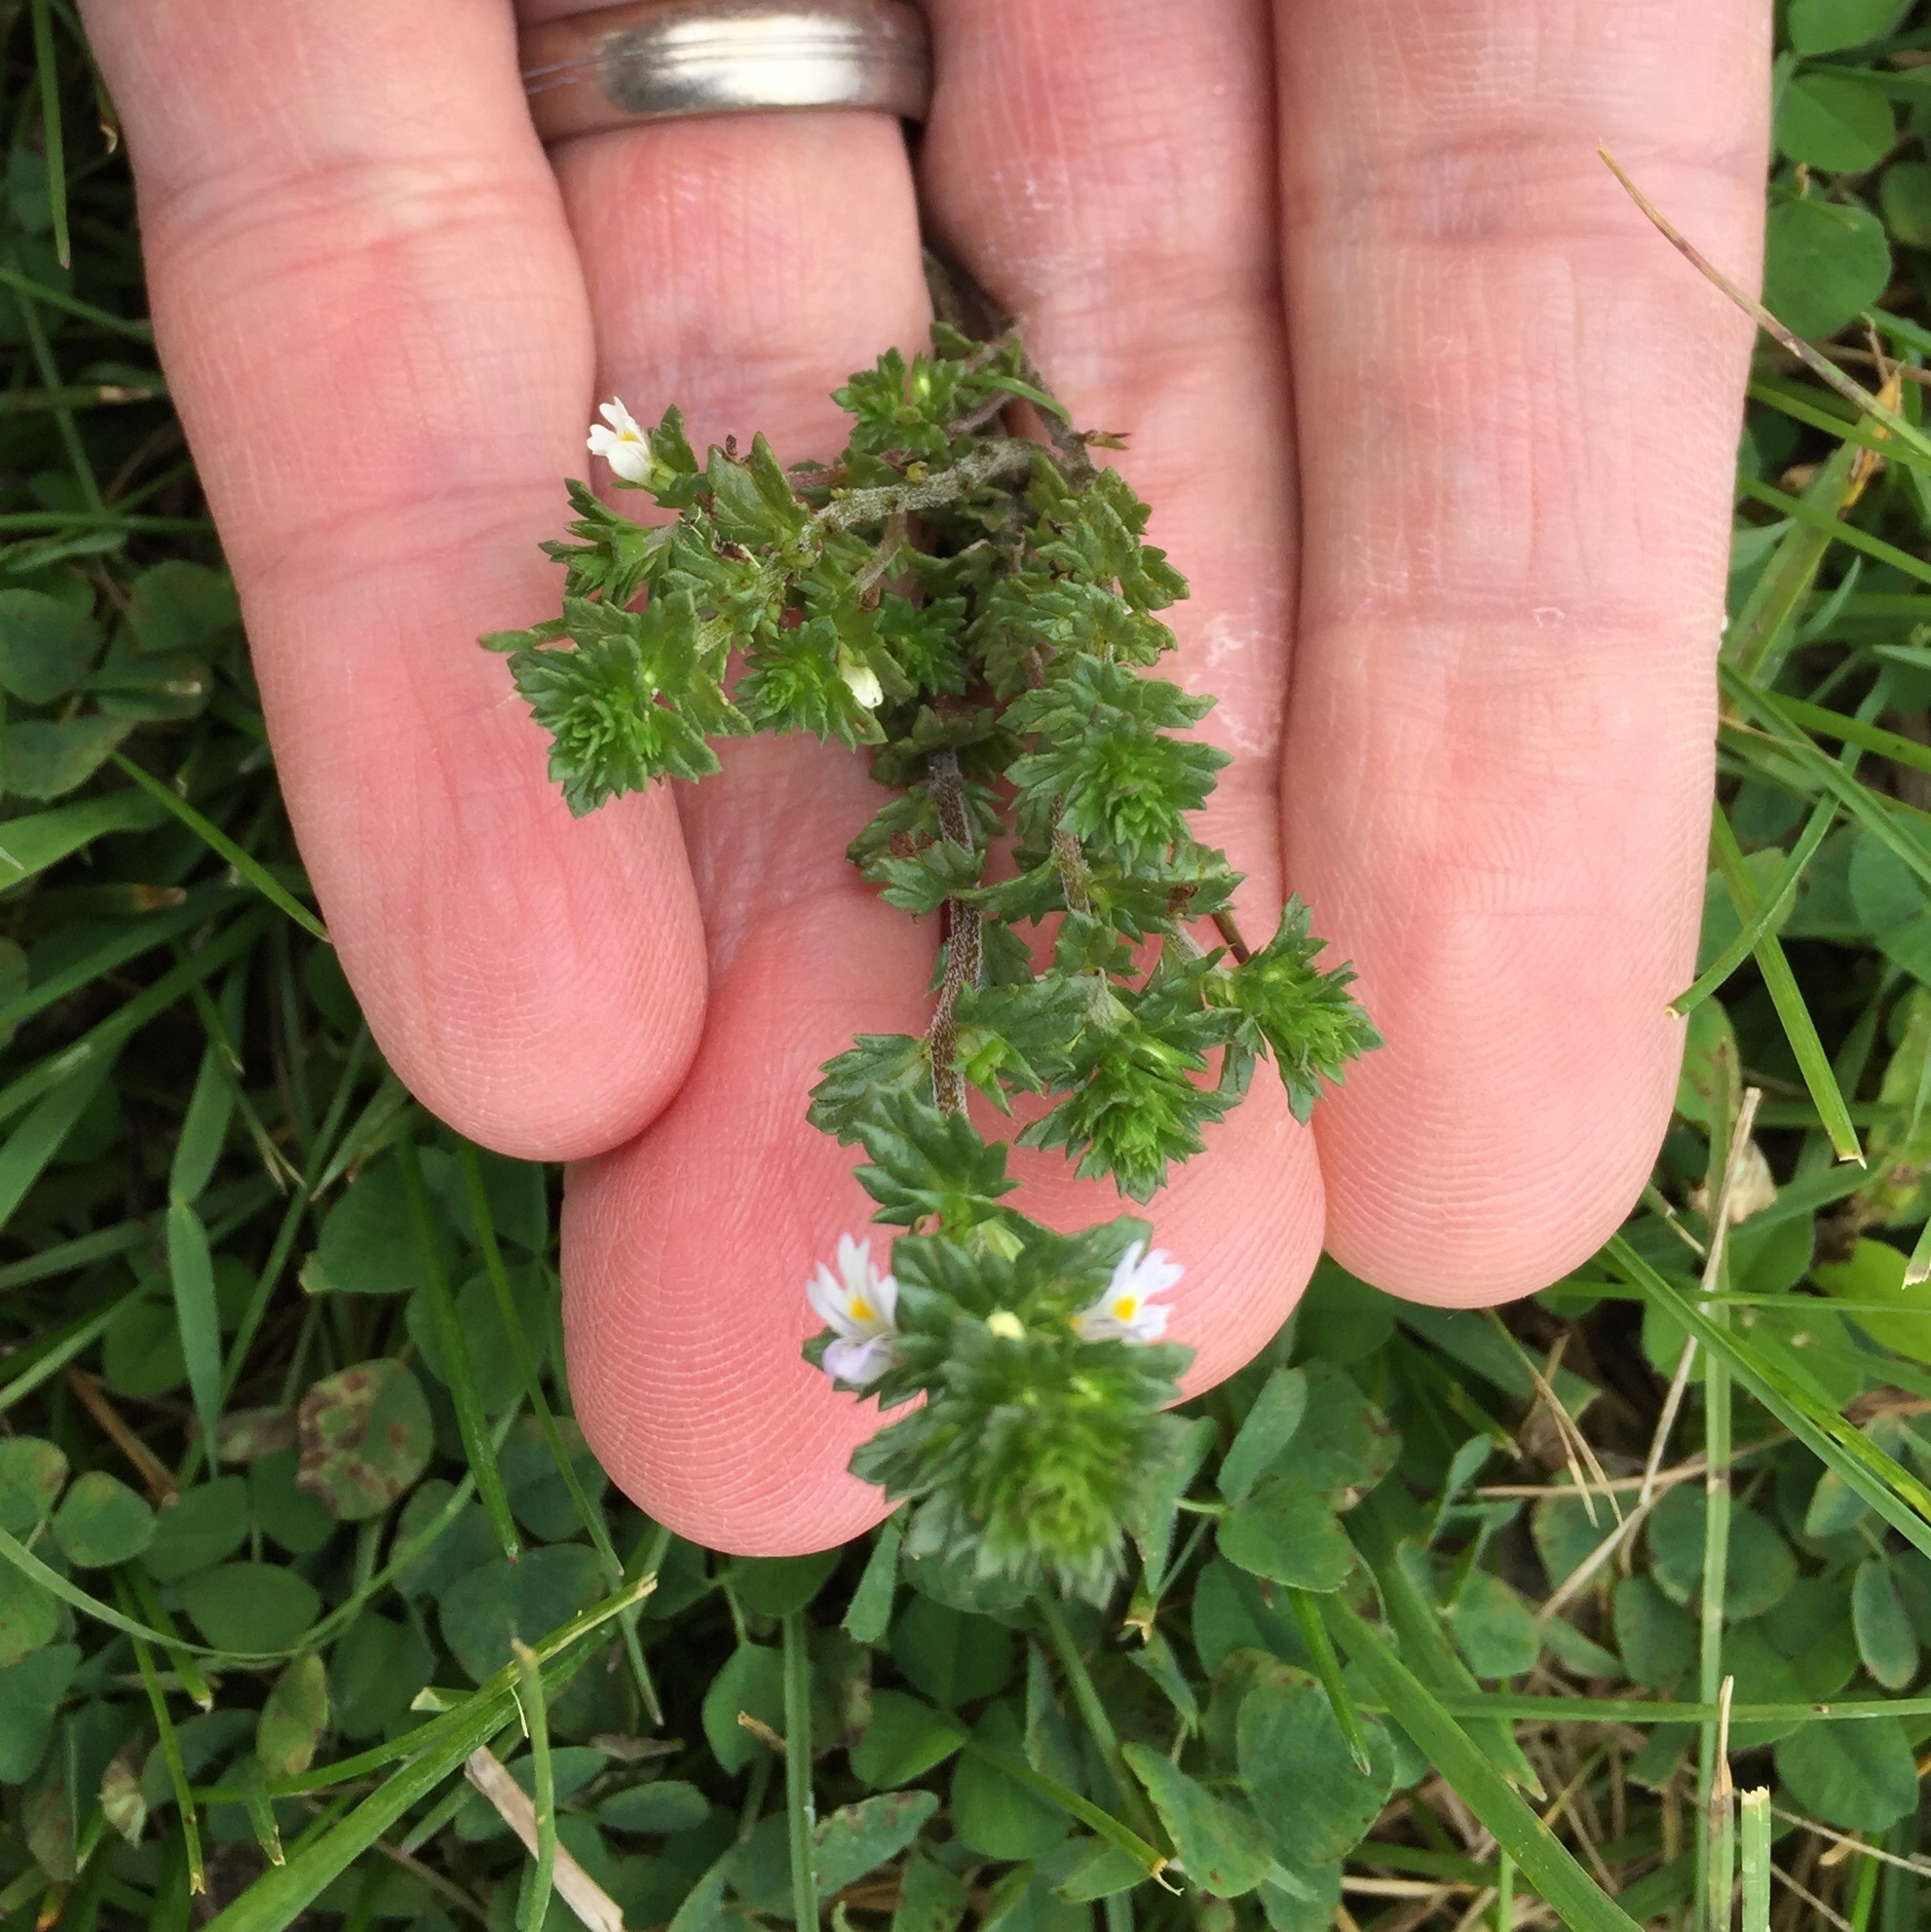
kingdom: Plantae
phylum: Tracheophyta
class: Magnoliopsida
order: Lamiales
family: Orobanchaceae
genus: Euphrasia
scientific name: Euphrasia stricta
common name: Drug eyebright
